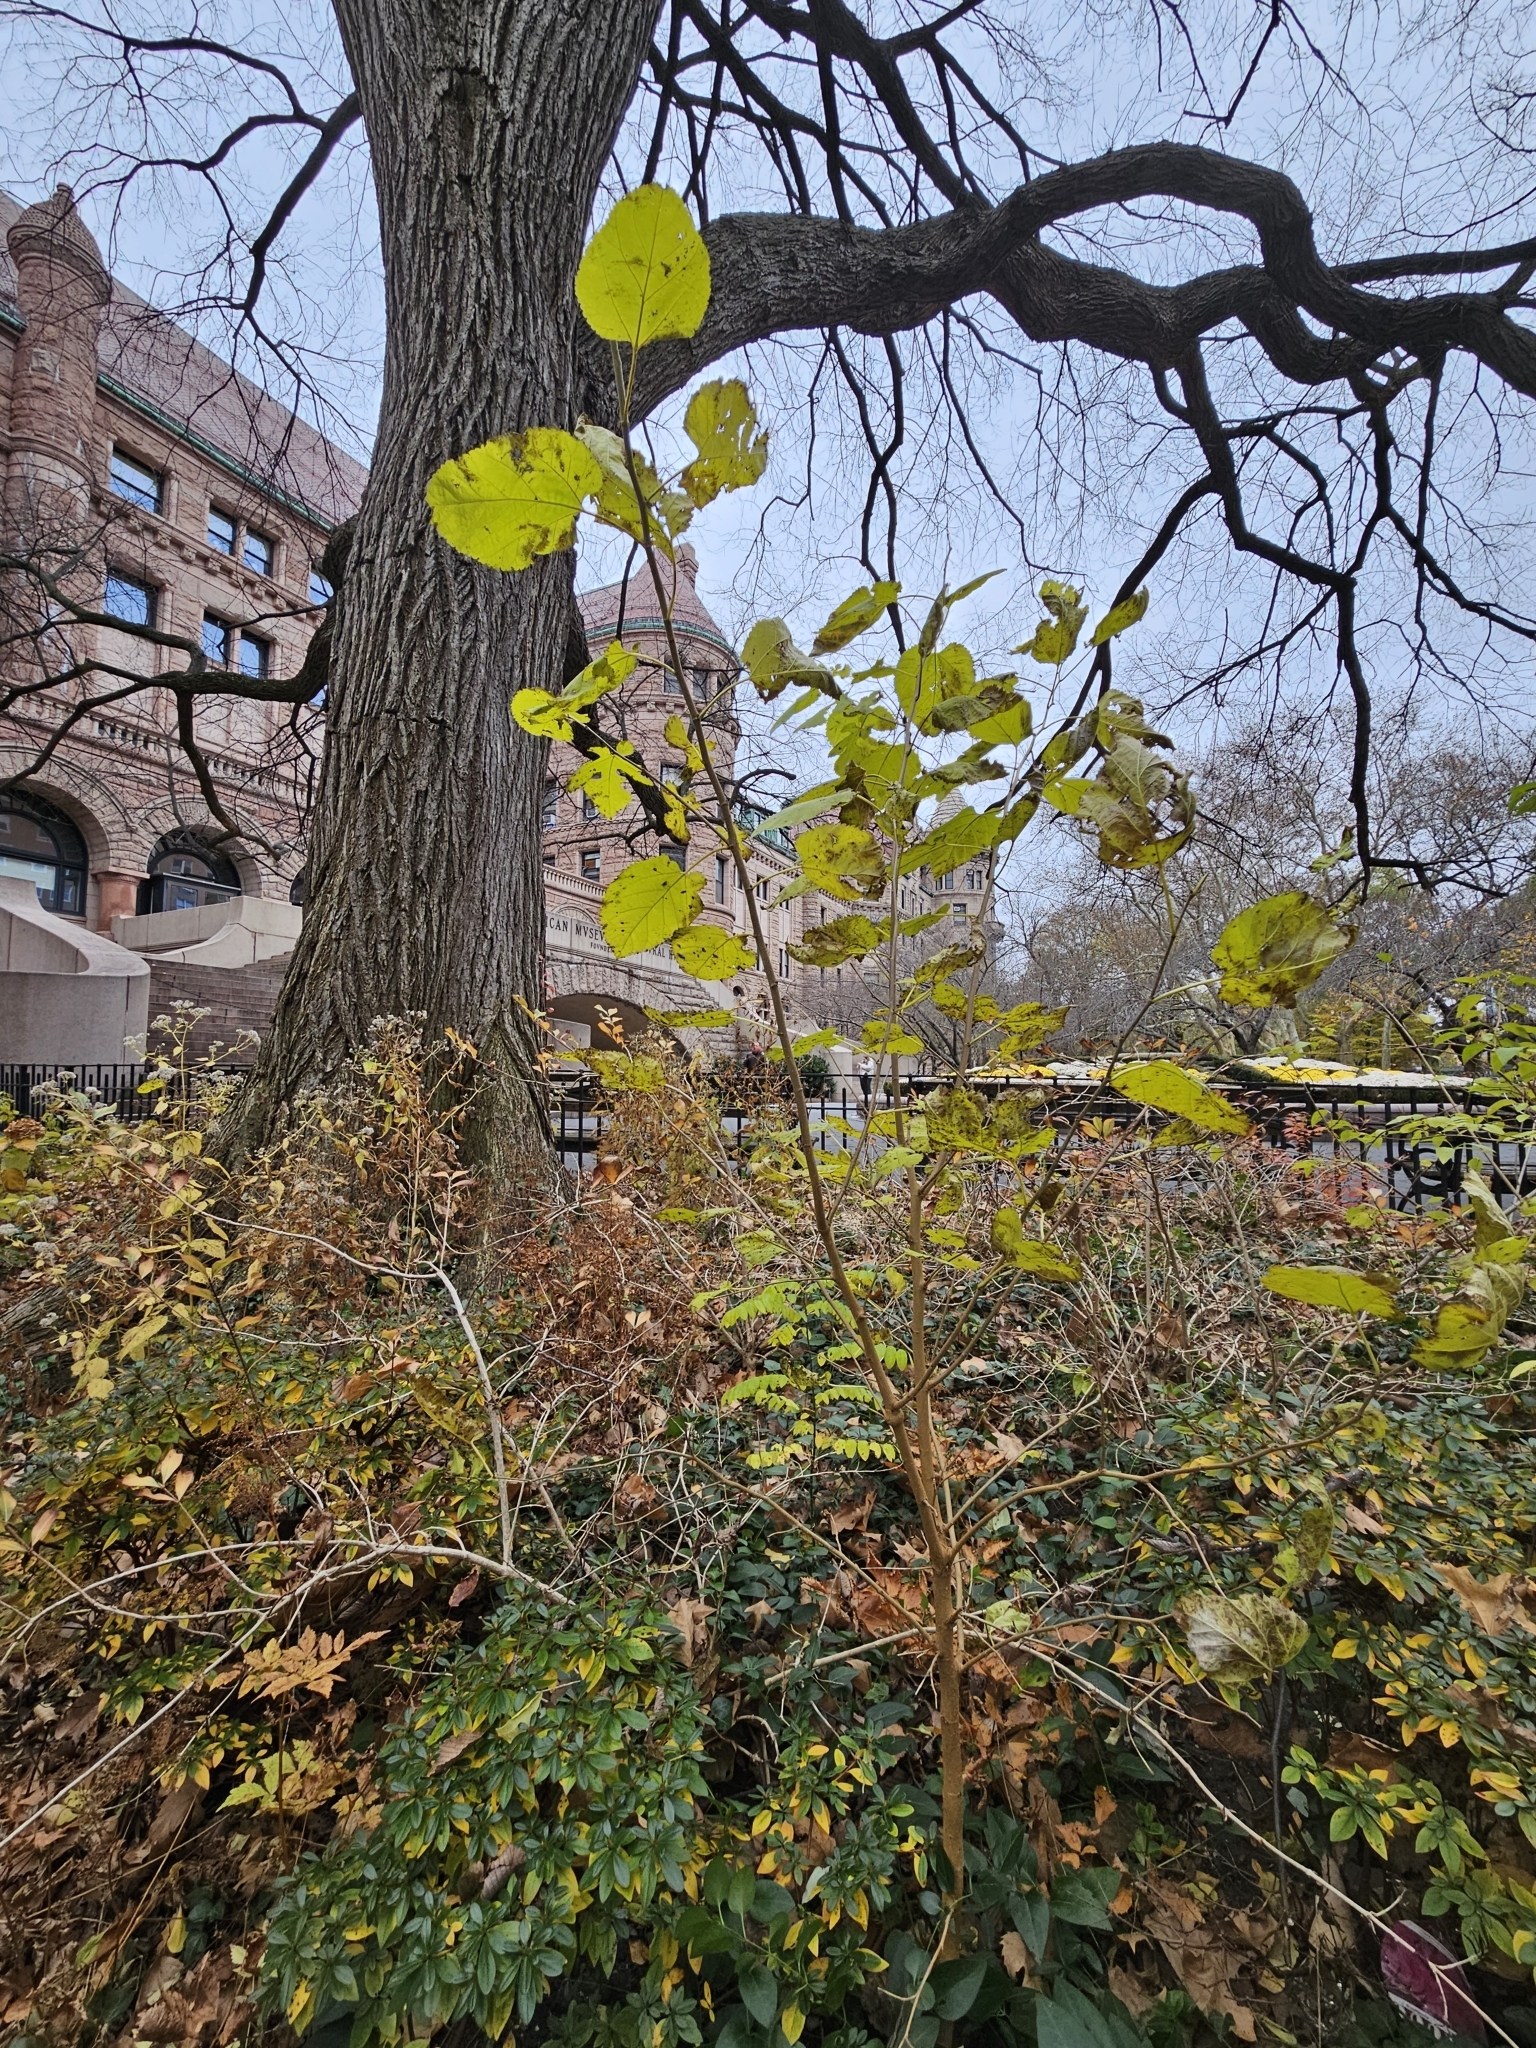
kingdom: Plantae
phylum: Tracheophyta
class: Magnoliopsida
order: Rosales
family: Moraceae
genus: Morus
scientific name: Morus alba
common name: White mulberry
